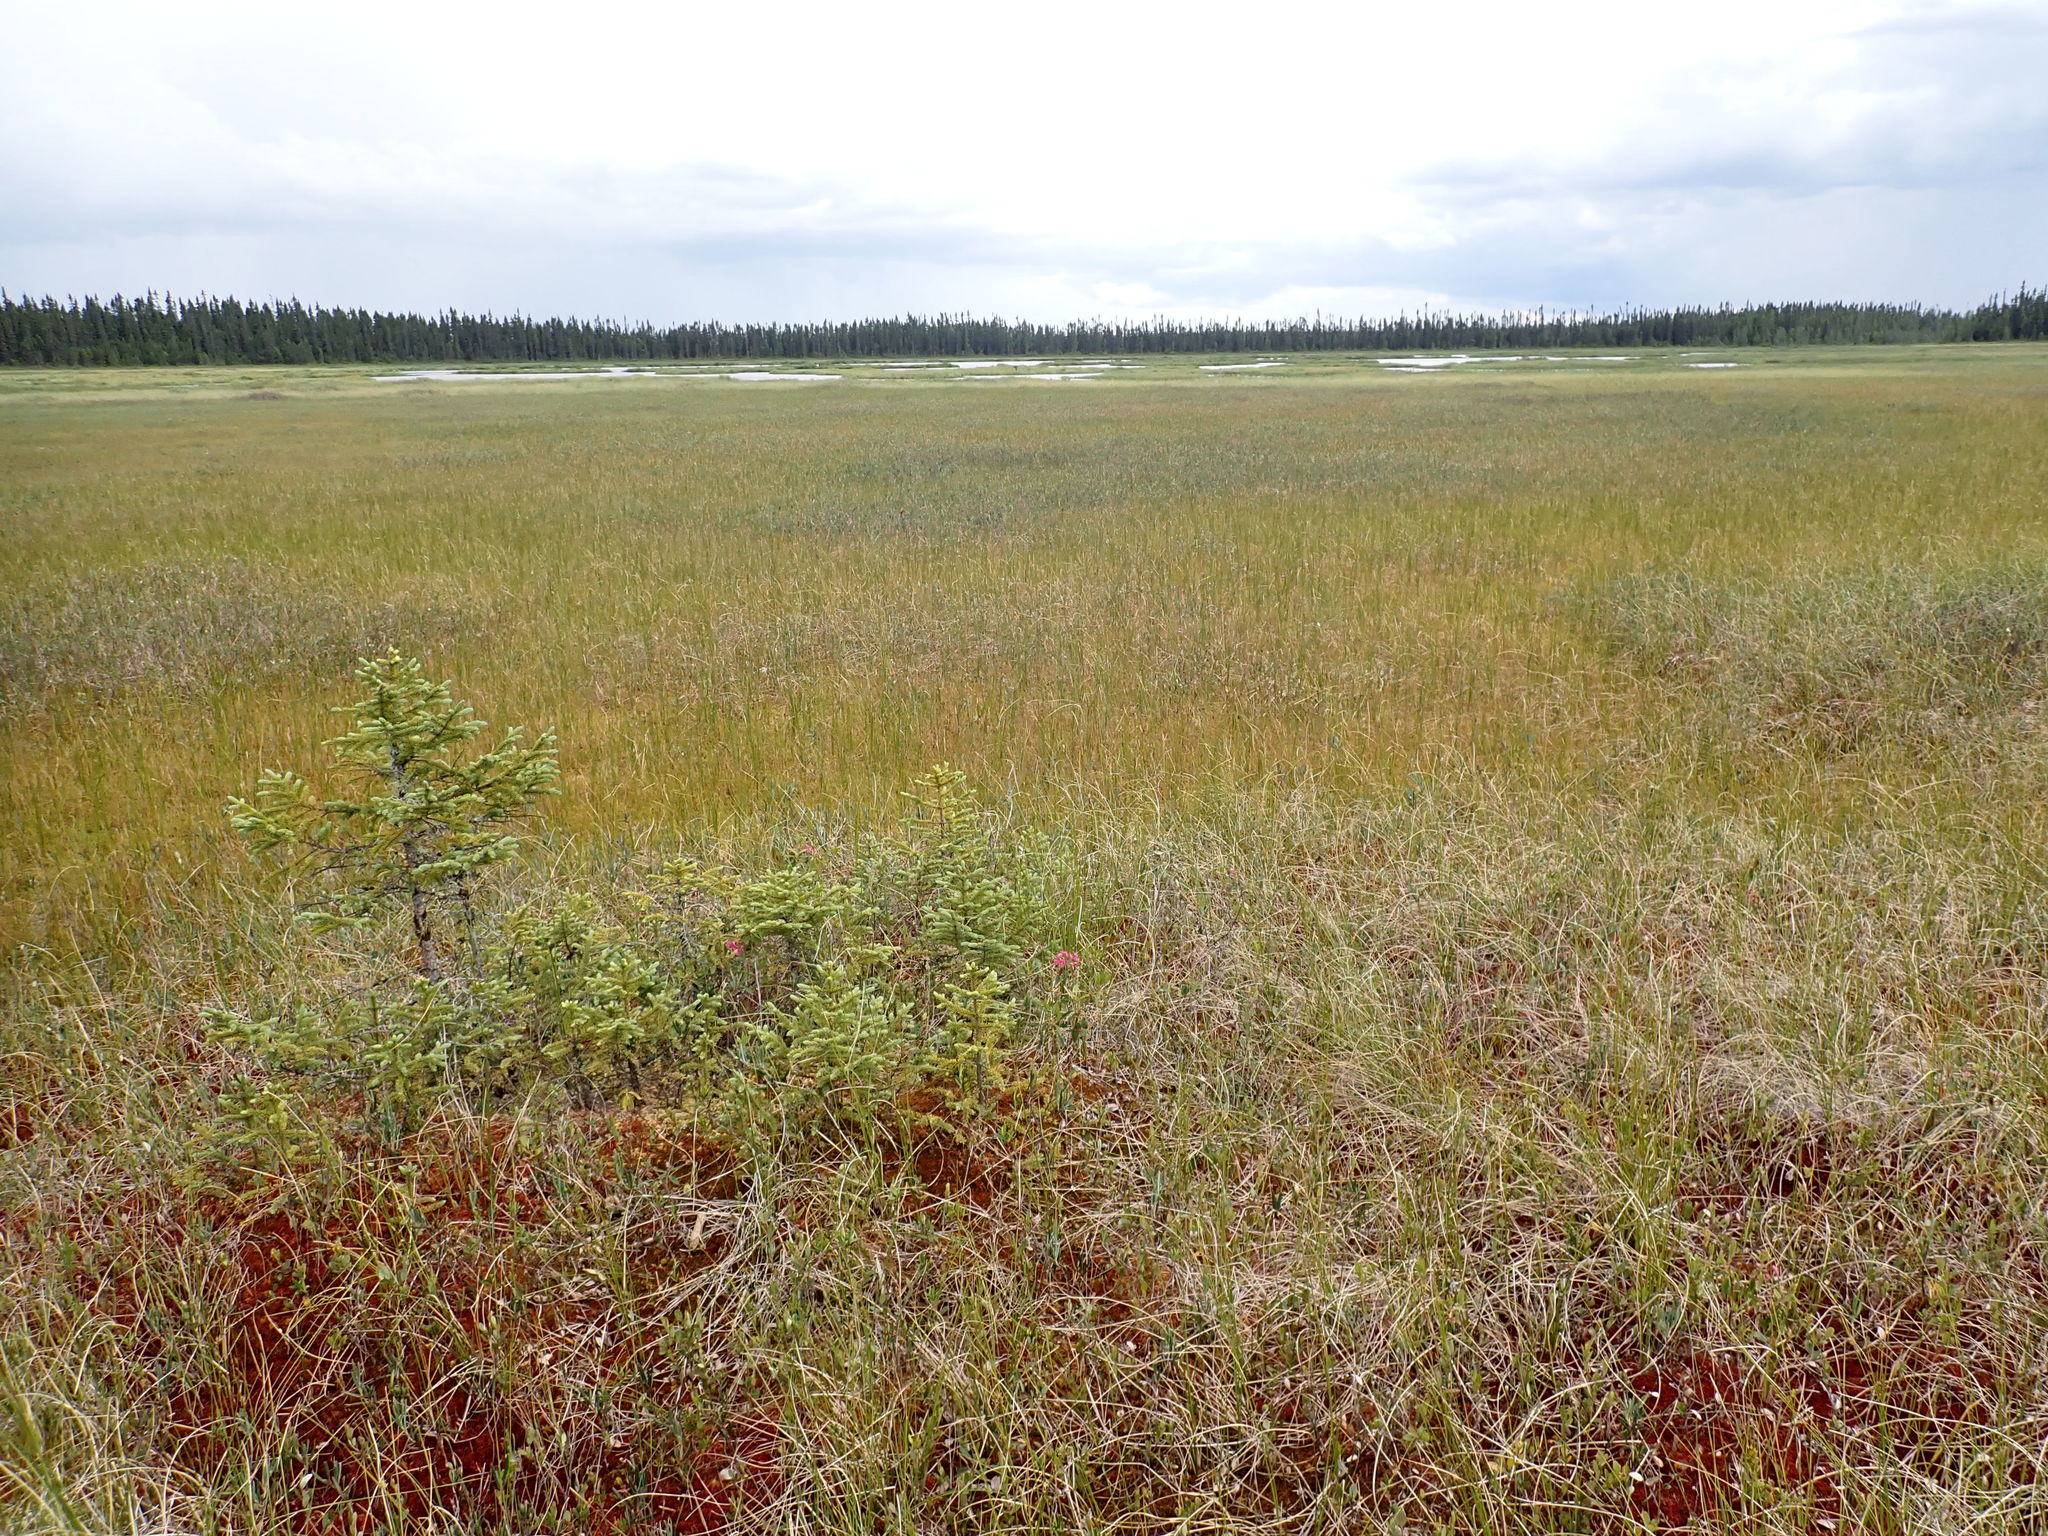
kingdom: Plantae
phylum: Tracheophyta
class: Pinopsida
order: Pinales
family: Pinaceae
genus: Picea
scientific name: Picea mariana
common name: Black spruce
